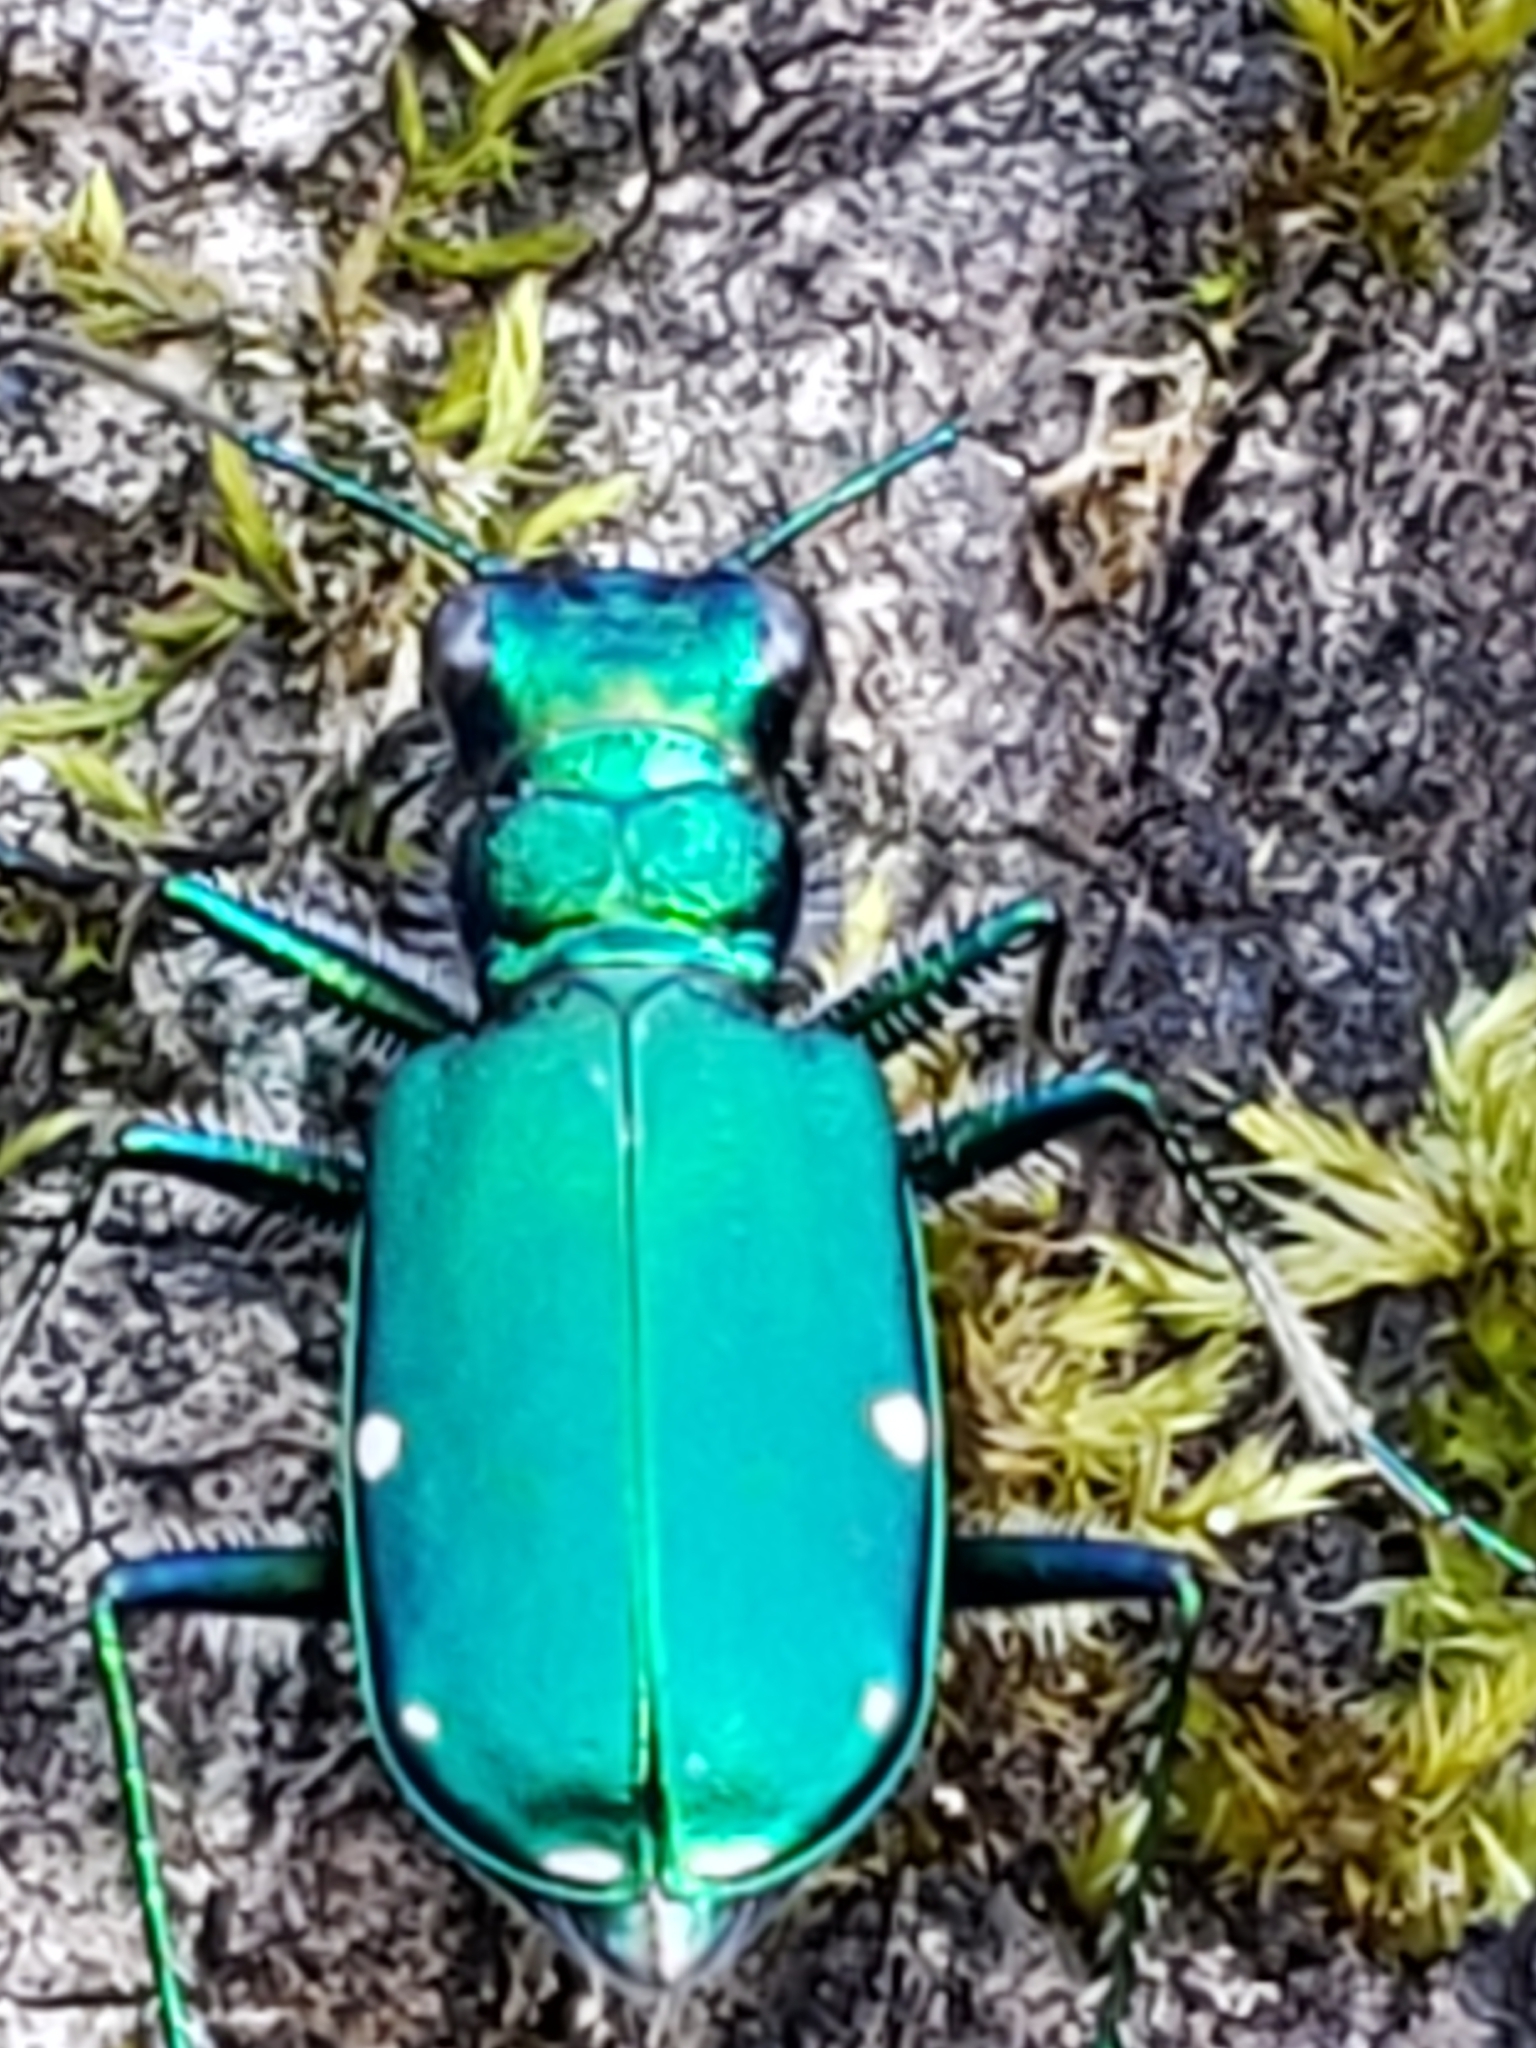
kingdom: Animalia
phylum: Arthropoda
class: Insecta
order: Coleoptera
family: Carabidae
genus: Cicindela
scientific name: Cicindela sexguttata
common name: Six-spotted tiger beetle
